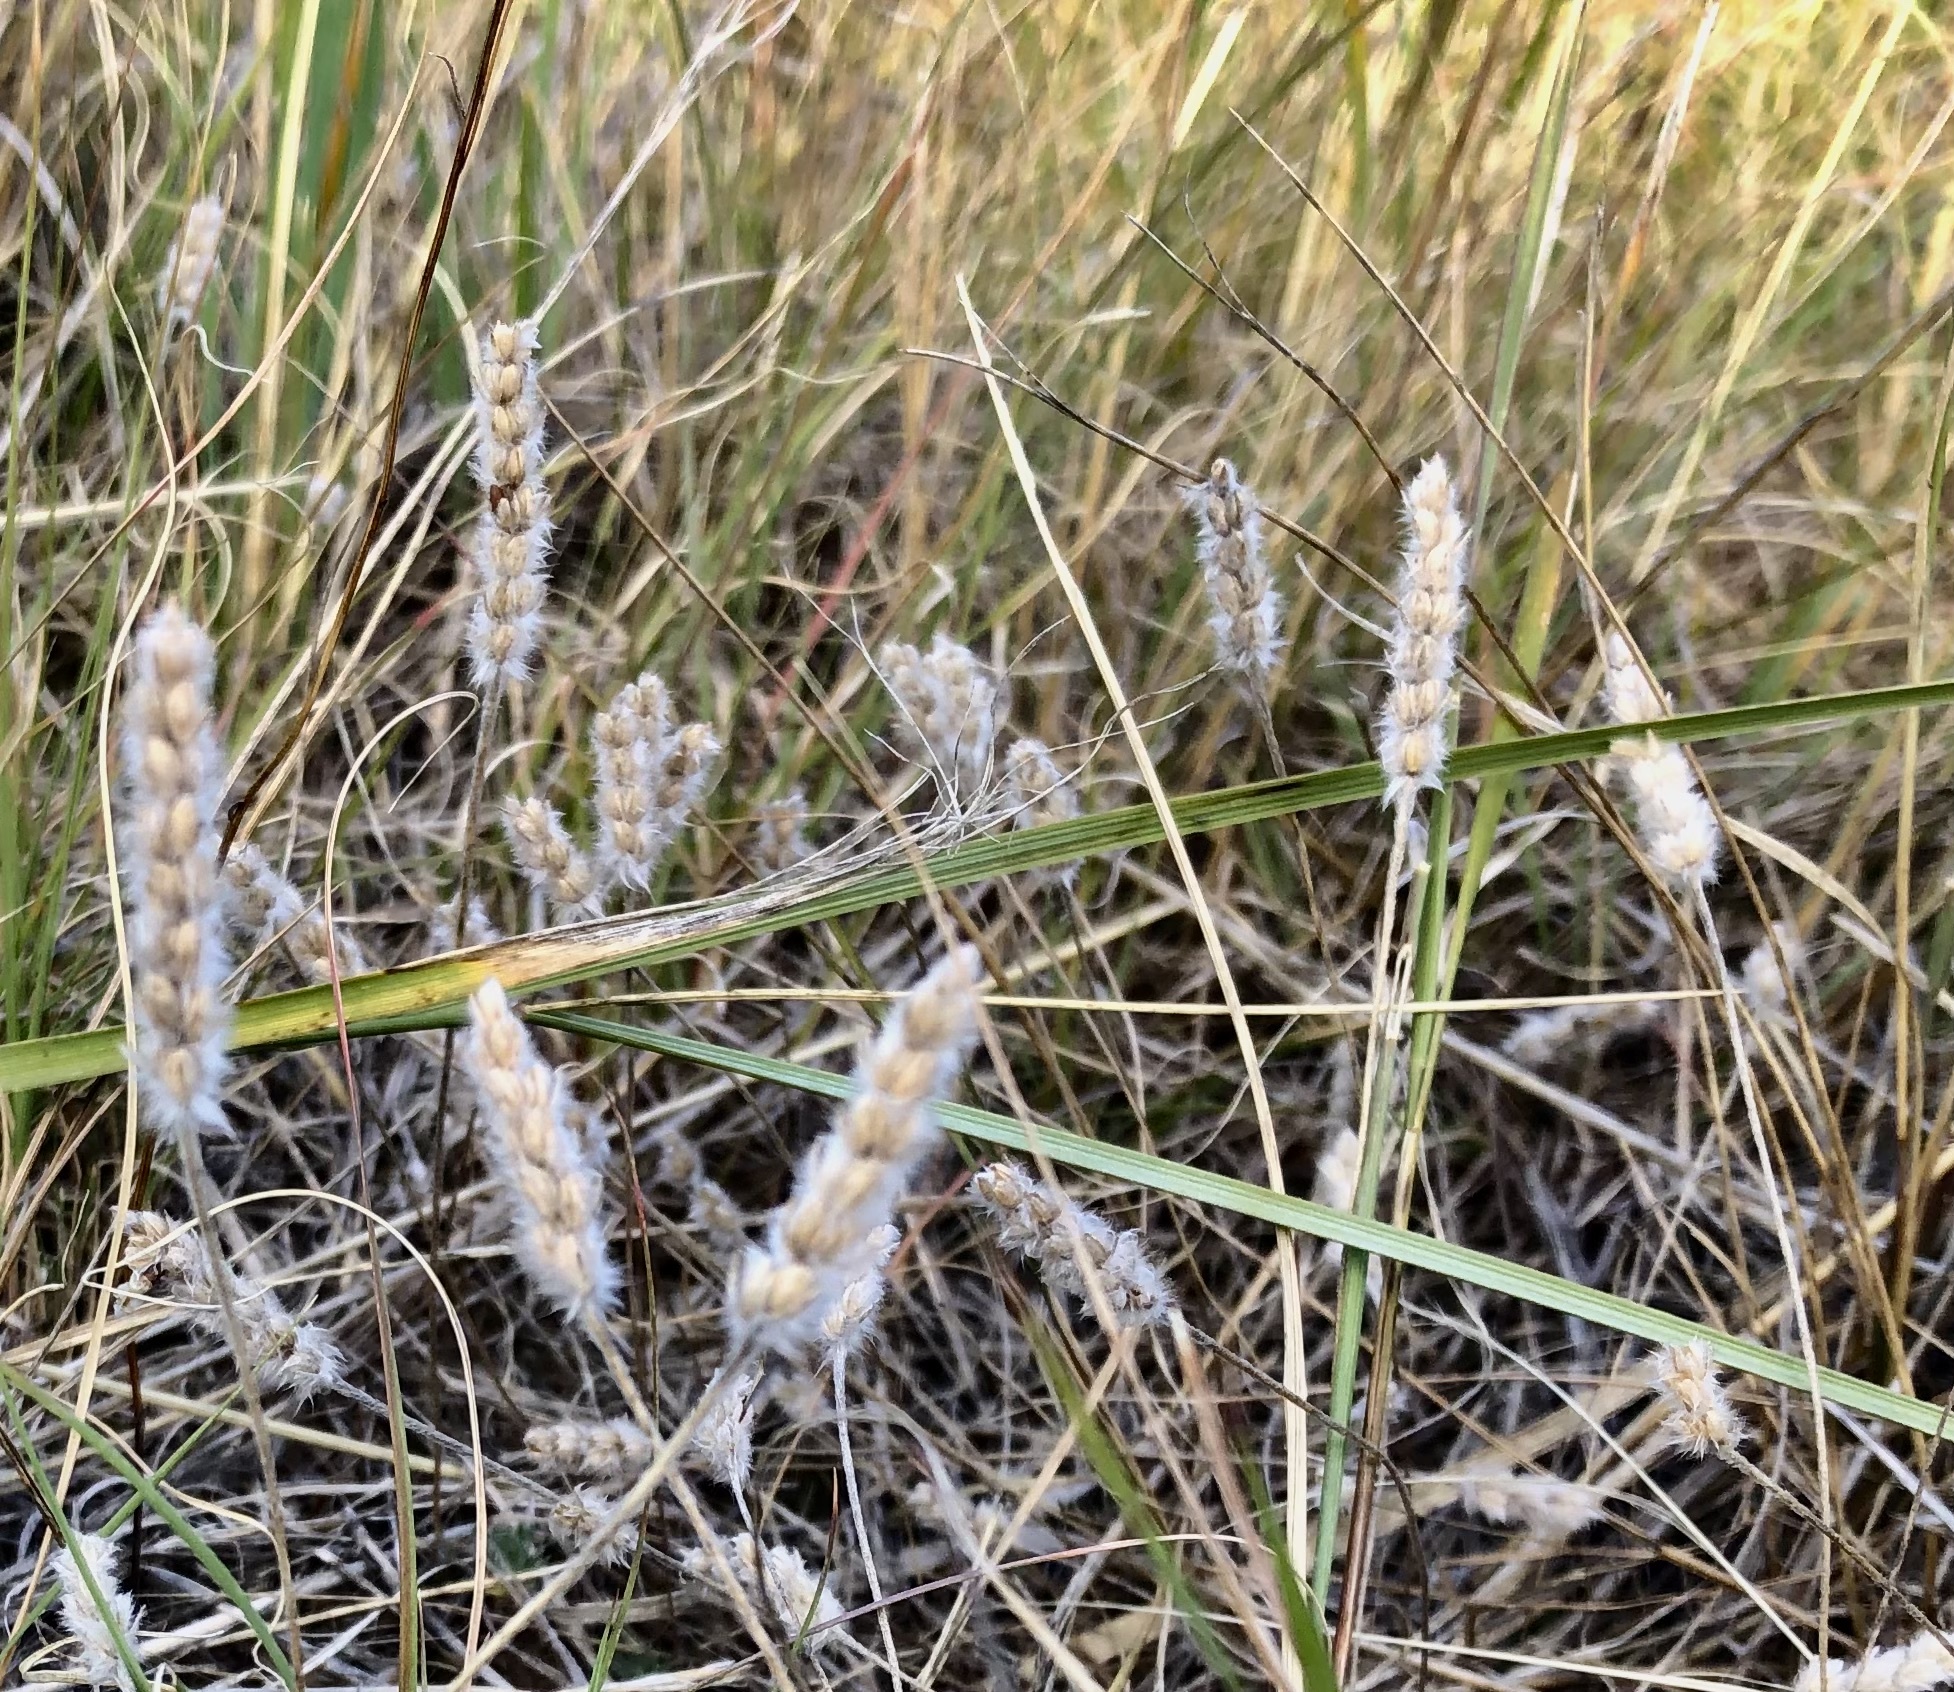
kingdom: Plantae
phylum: Tracheophyta
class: Magnoliopsida
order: Lamiales
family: Plantaginaceae
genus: Plantago
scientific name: Plantago patagonica
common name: Patagonia indian-wheat
